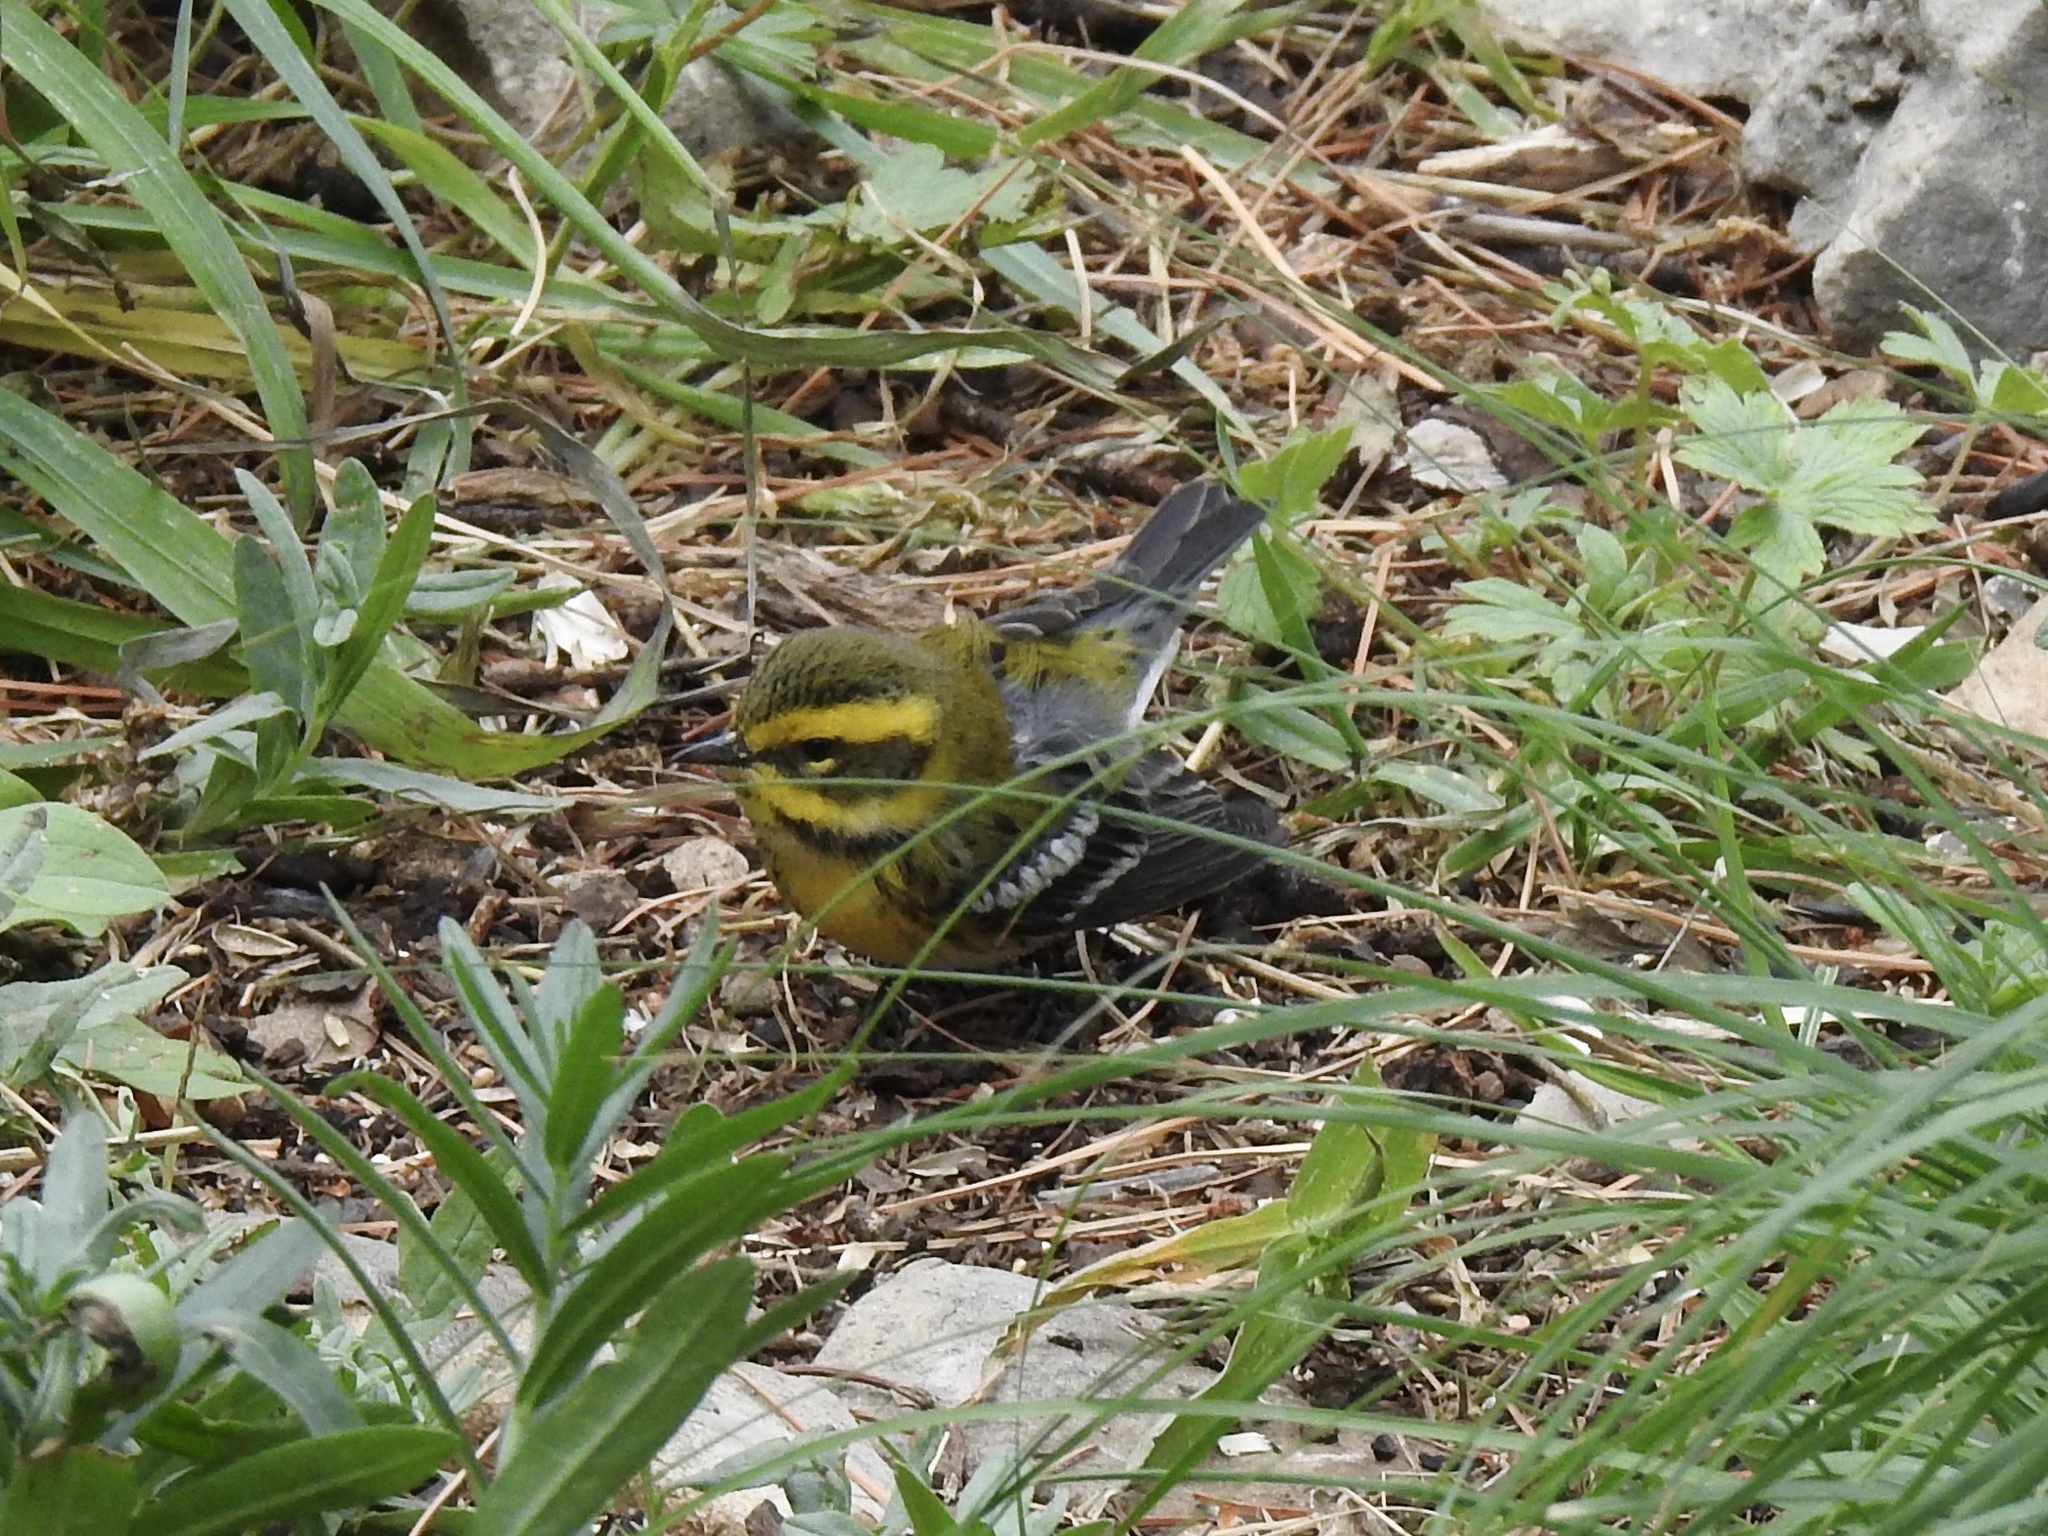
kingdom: Animalia
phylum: Chordata
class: Aves
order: Passeriformes
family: Parulidae
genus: Setophaga
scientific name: Setophaga townsendi
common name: Townsend's warbler
